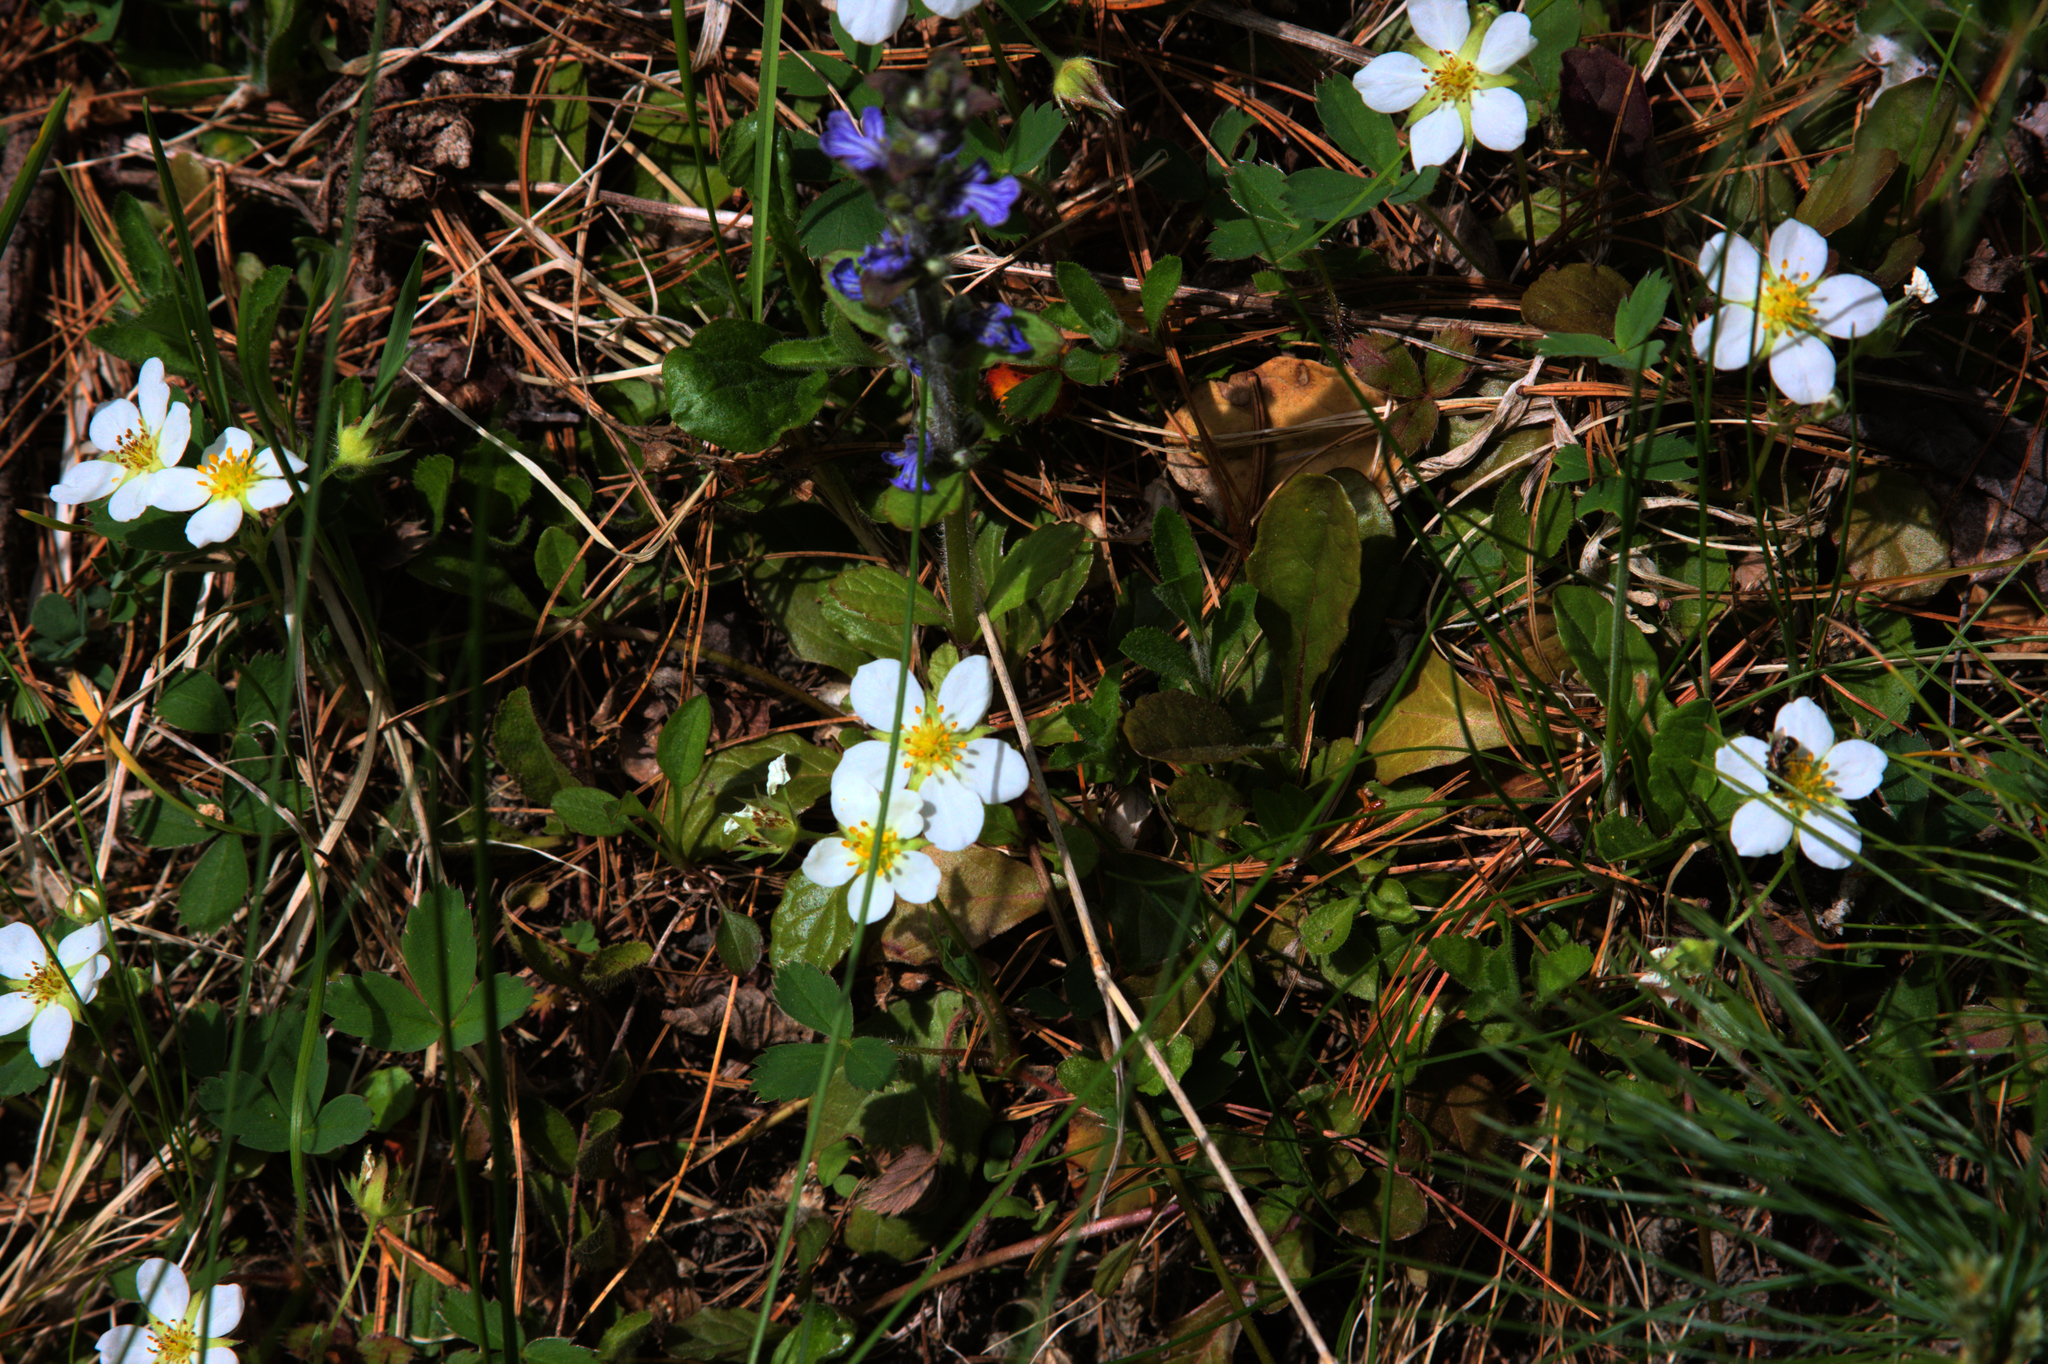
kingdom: Plantae
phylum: Tracheophyta
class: Magnoliopsida
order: Rosales
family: Rosaceae
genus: Fragaria
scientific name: Fragaria virginiana
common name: Thickleaved wild strawberry
